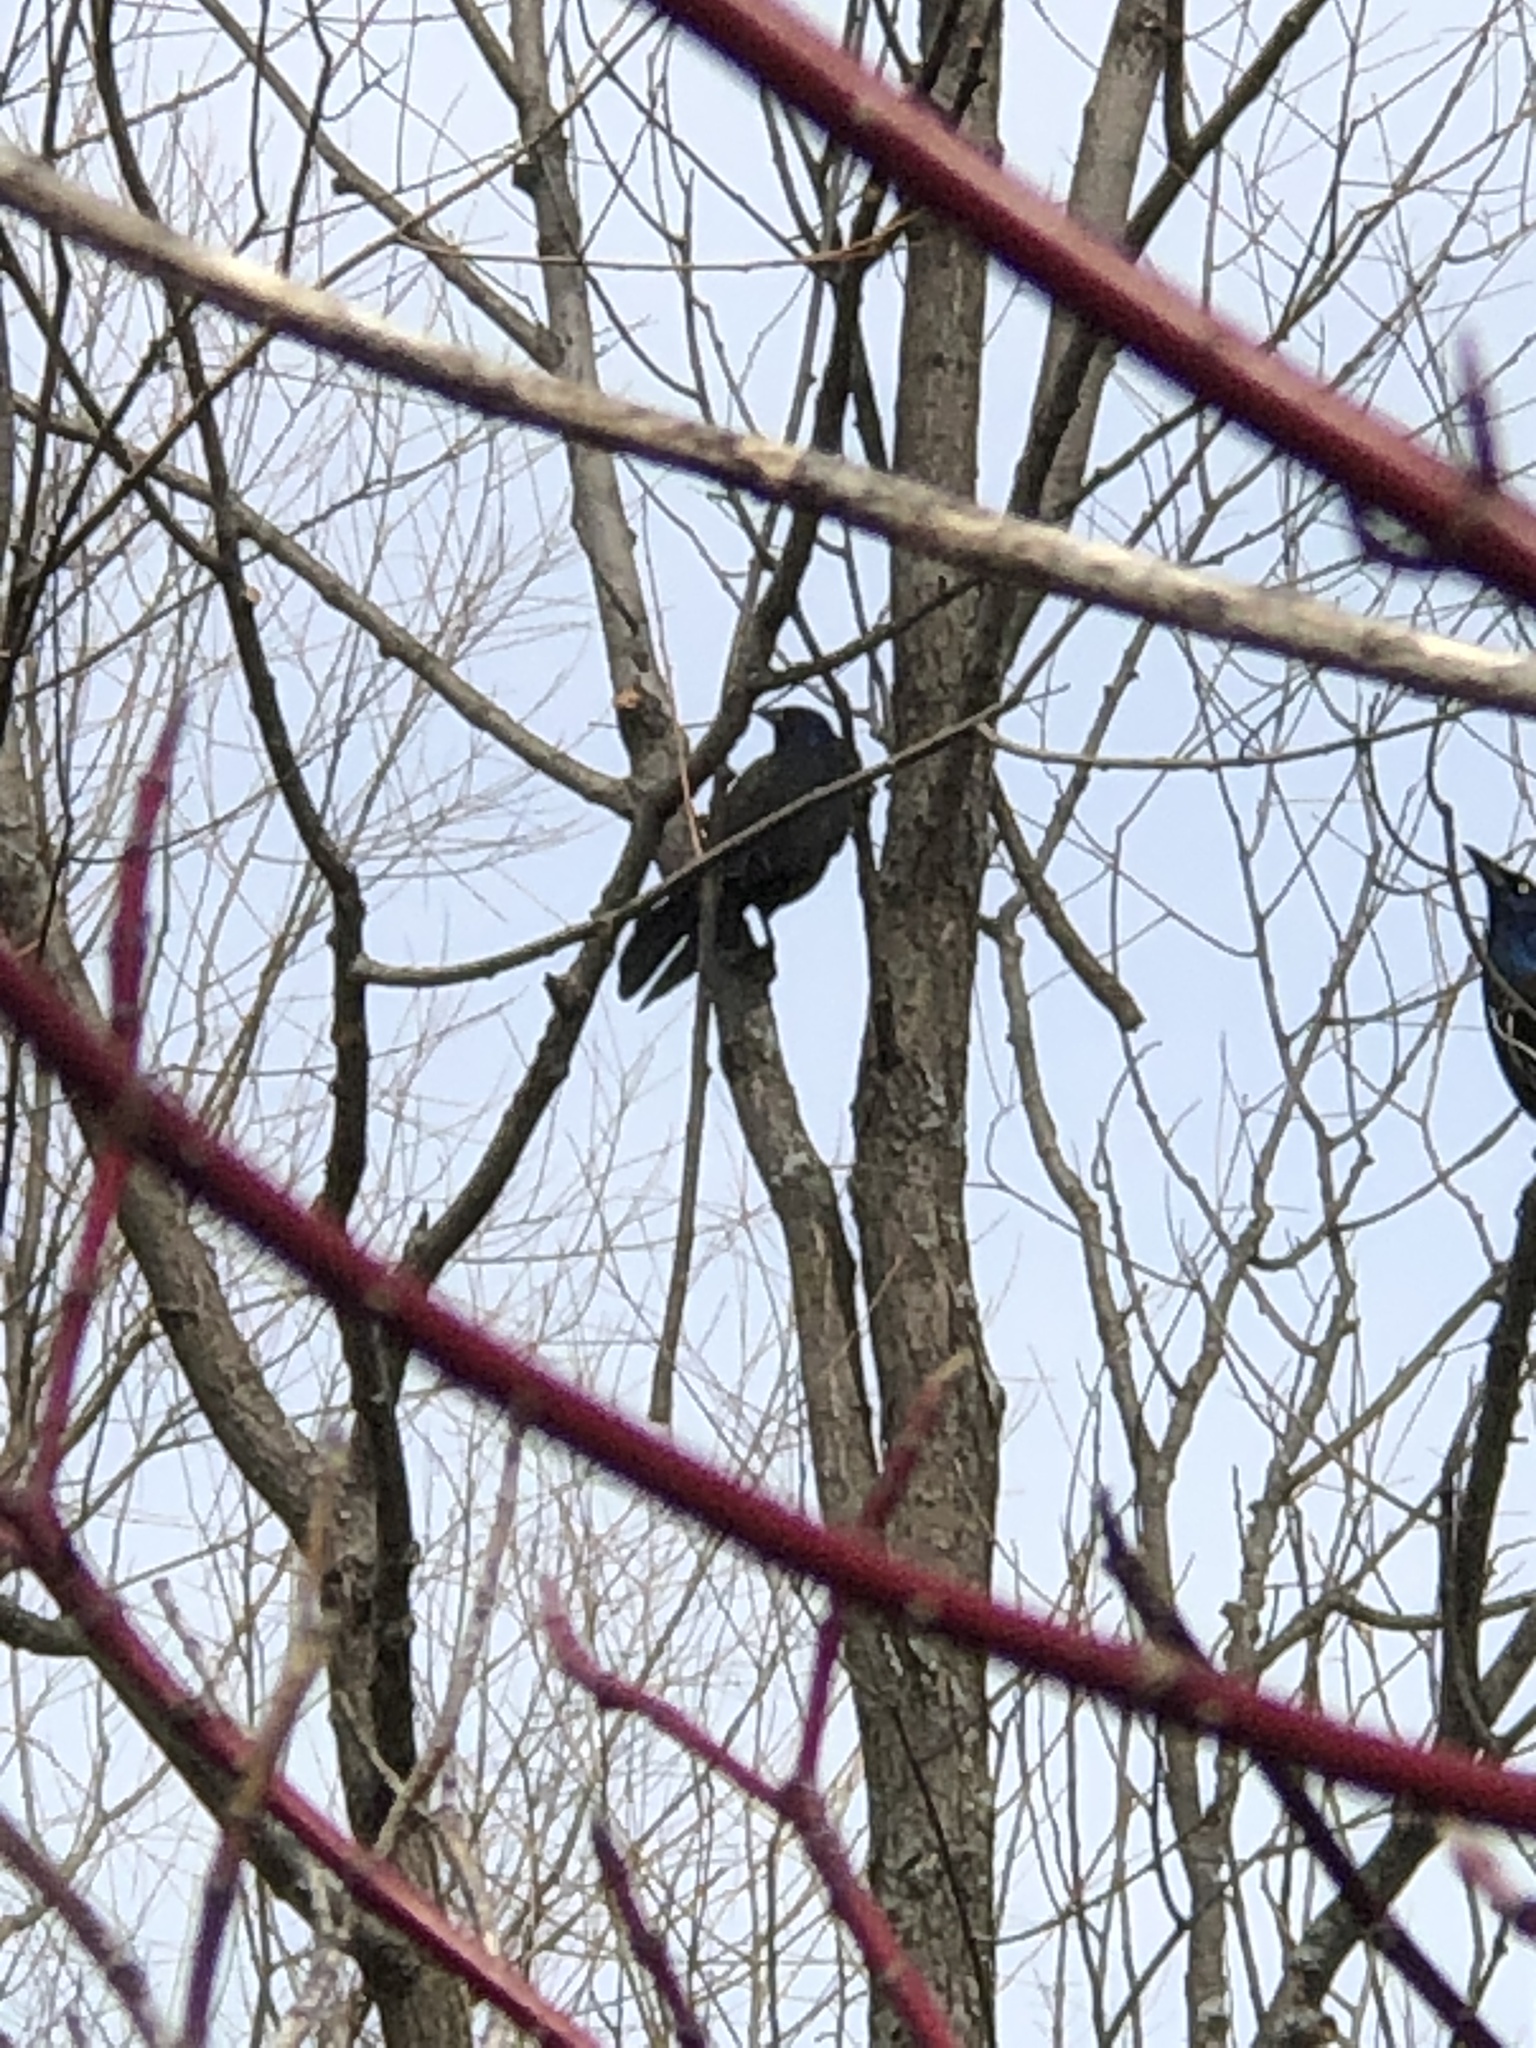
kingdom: Animalia
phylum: Chordata
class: Aves
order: Passeriformes
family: Icteridae
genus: Quiscalus
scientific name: Quiscalus quiscula
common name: Common grackle
